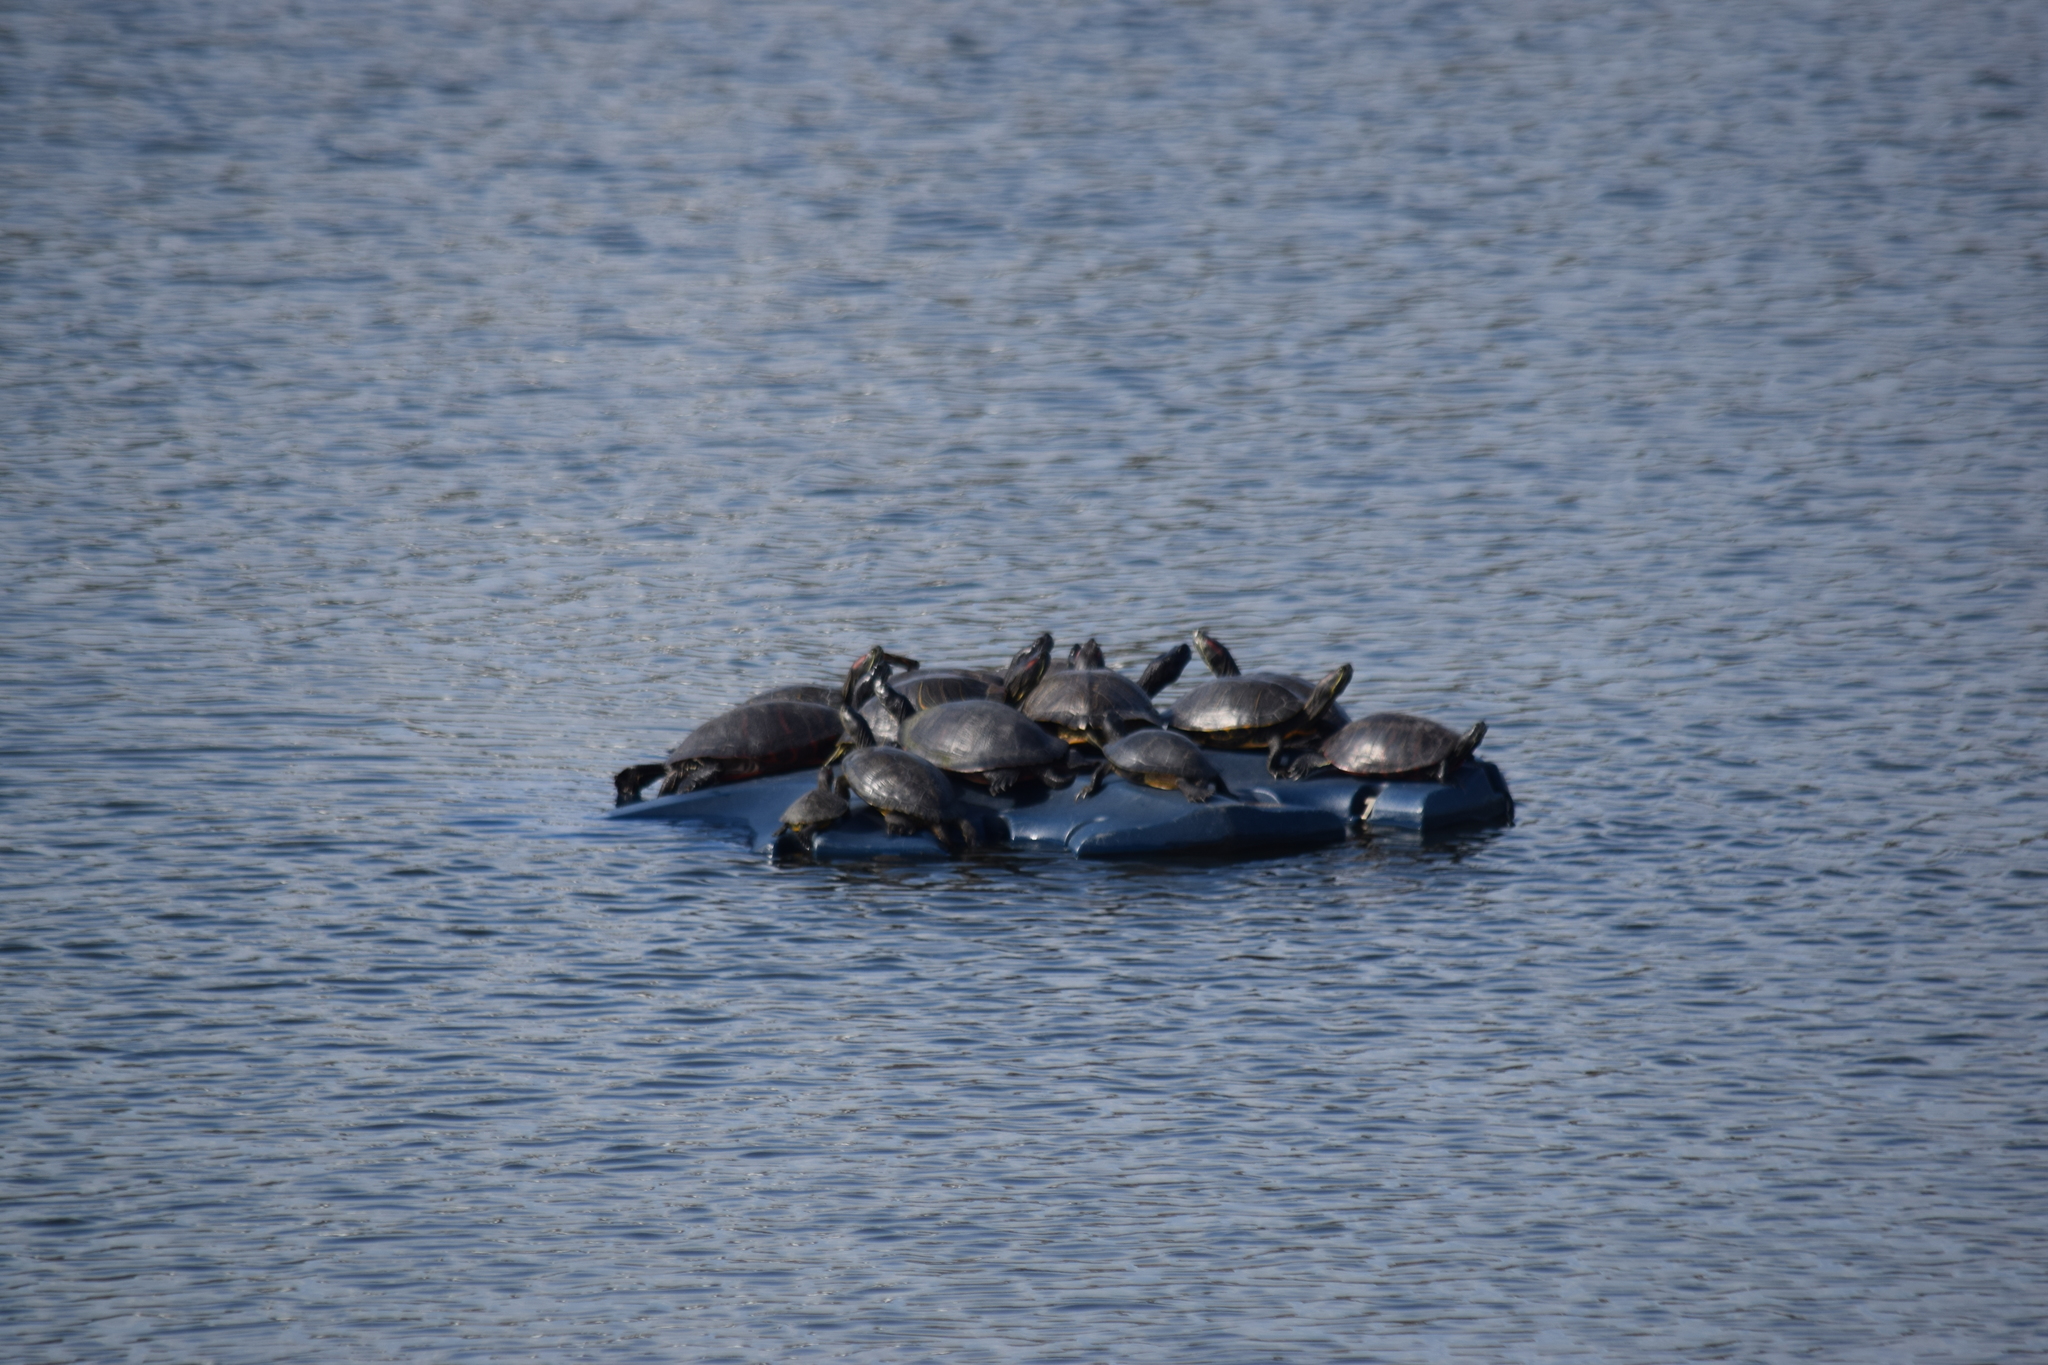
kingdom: Animalia
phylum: Chordata
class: Testudines
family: Emydidae
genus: Pseudemys
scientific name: Pseudemys rubriventris
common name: American red-bellied turtle
